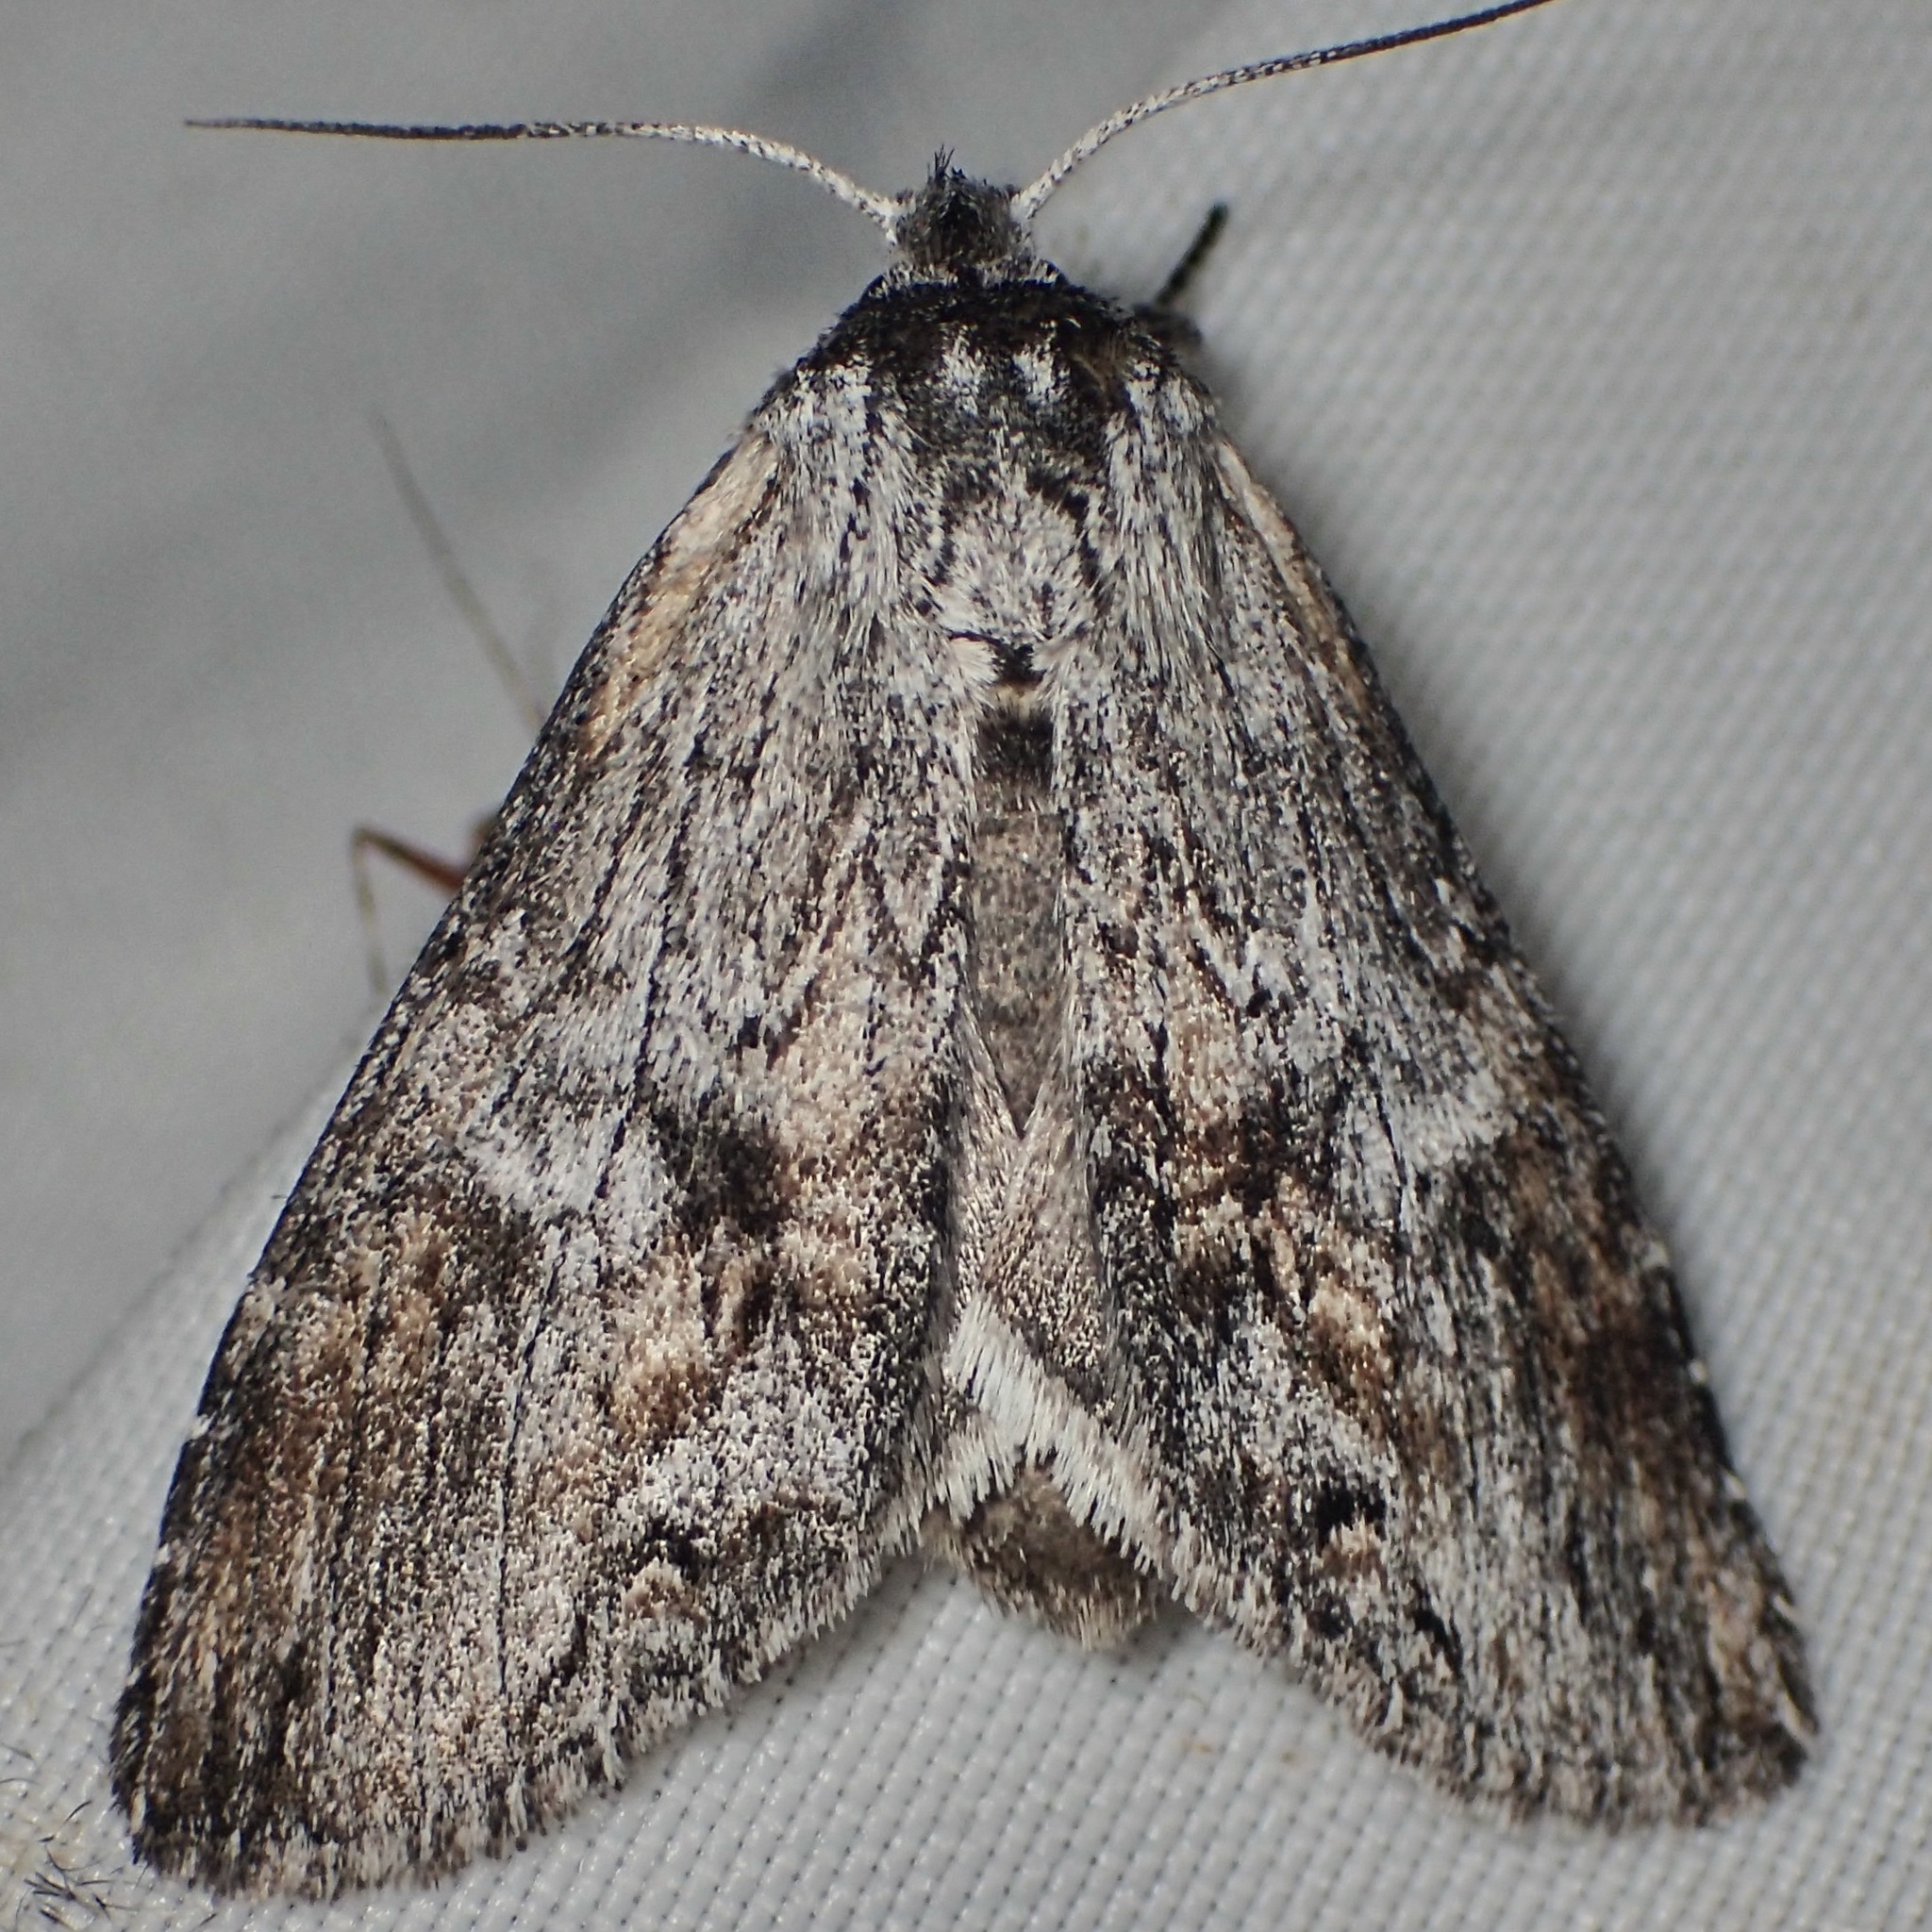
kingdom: Animalia
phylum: Arthropoda
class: Insecta
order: Lepidoptera
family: Notodontidae
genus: Notela
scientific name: Notela jaliscana
